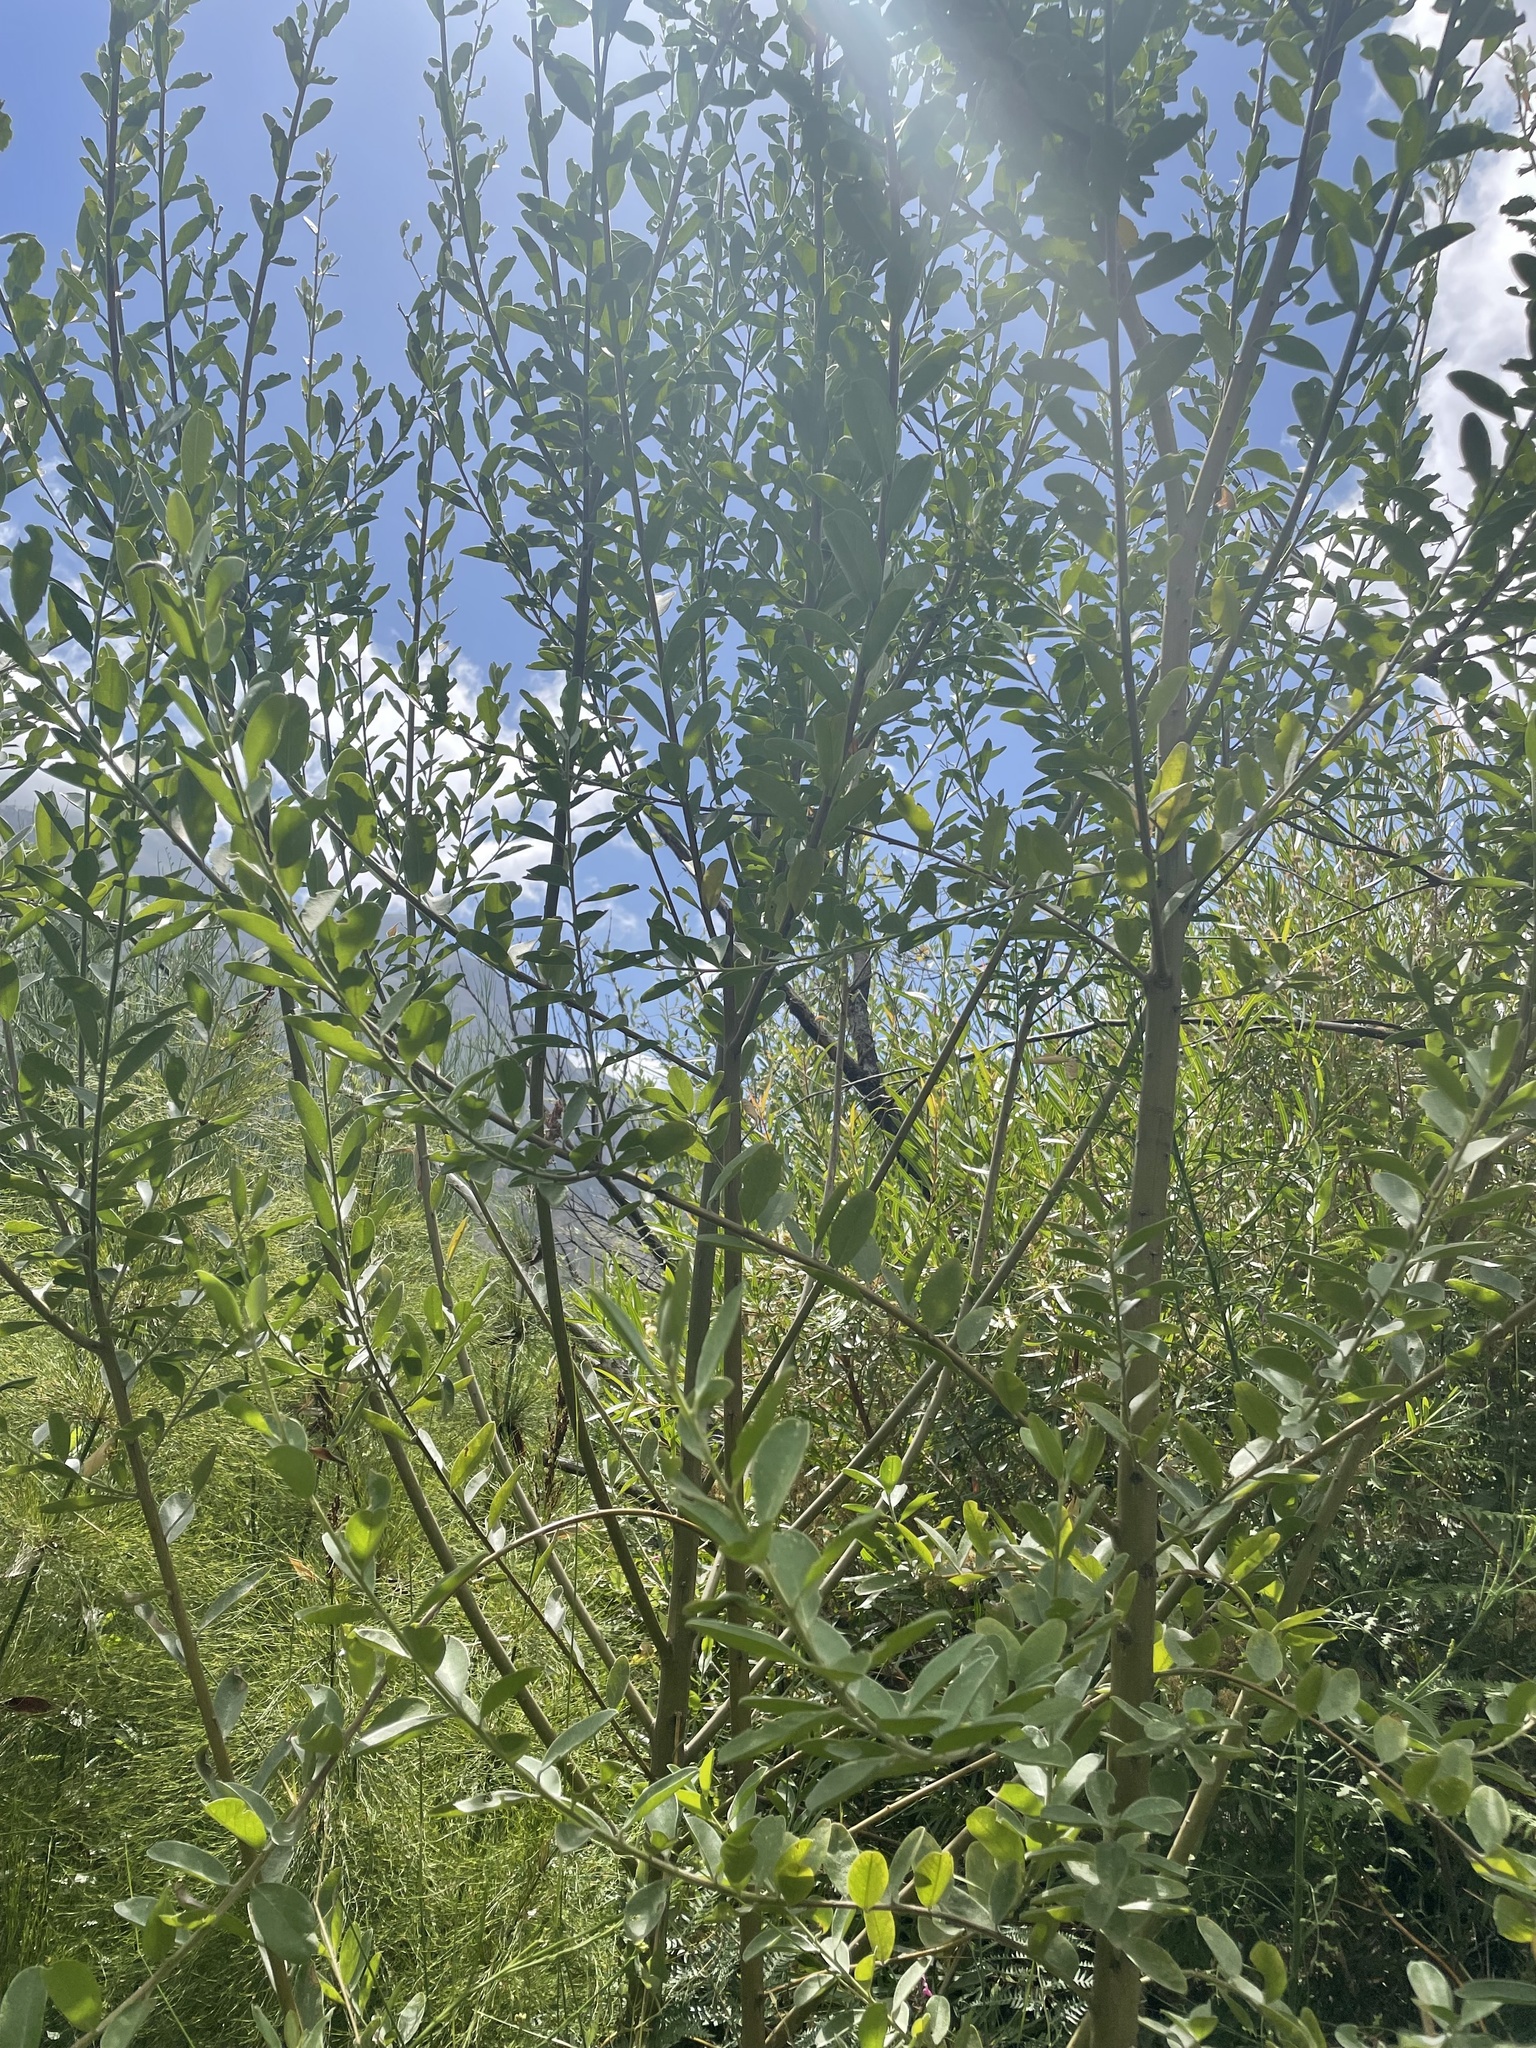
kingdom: Plantae
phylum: Tracheophyta
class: Magnoliopsida
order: Fabales
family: Fabaceae
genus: Podalyria
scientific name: Podalyria calyptrata
